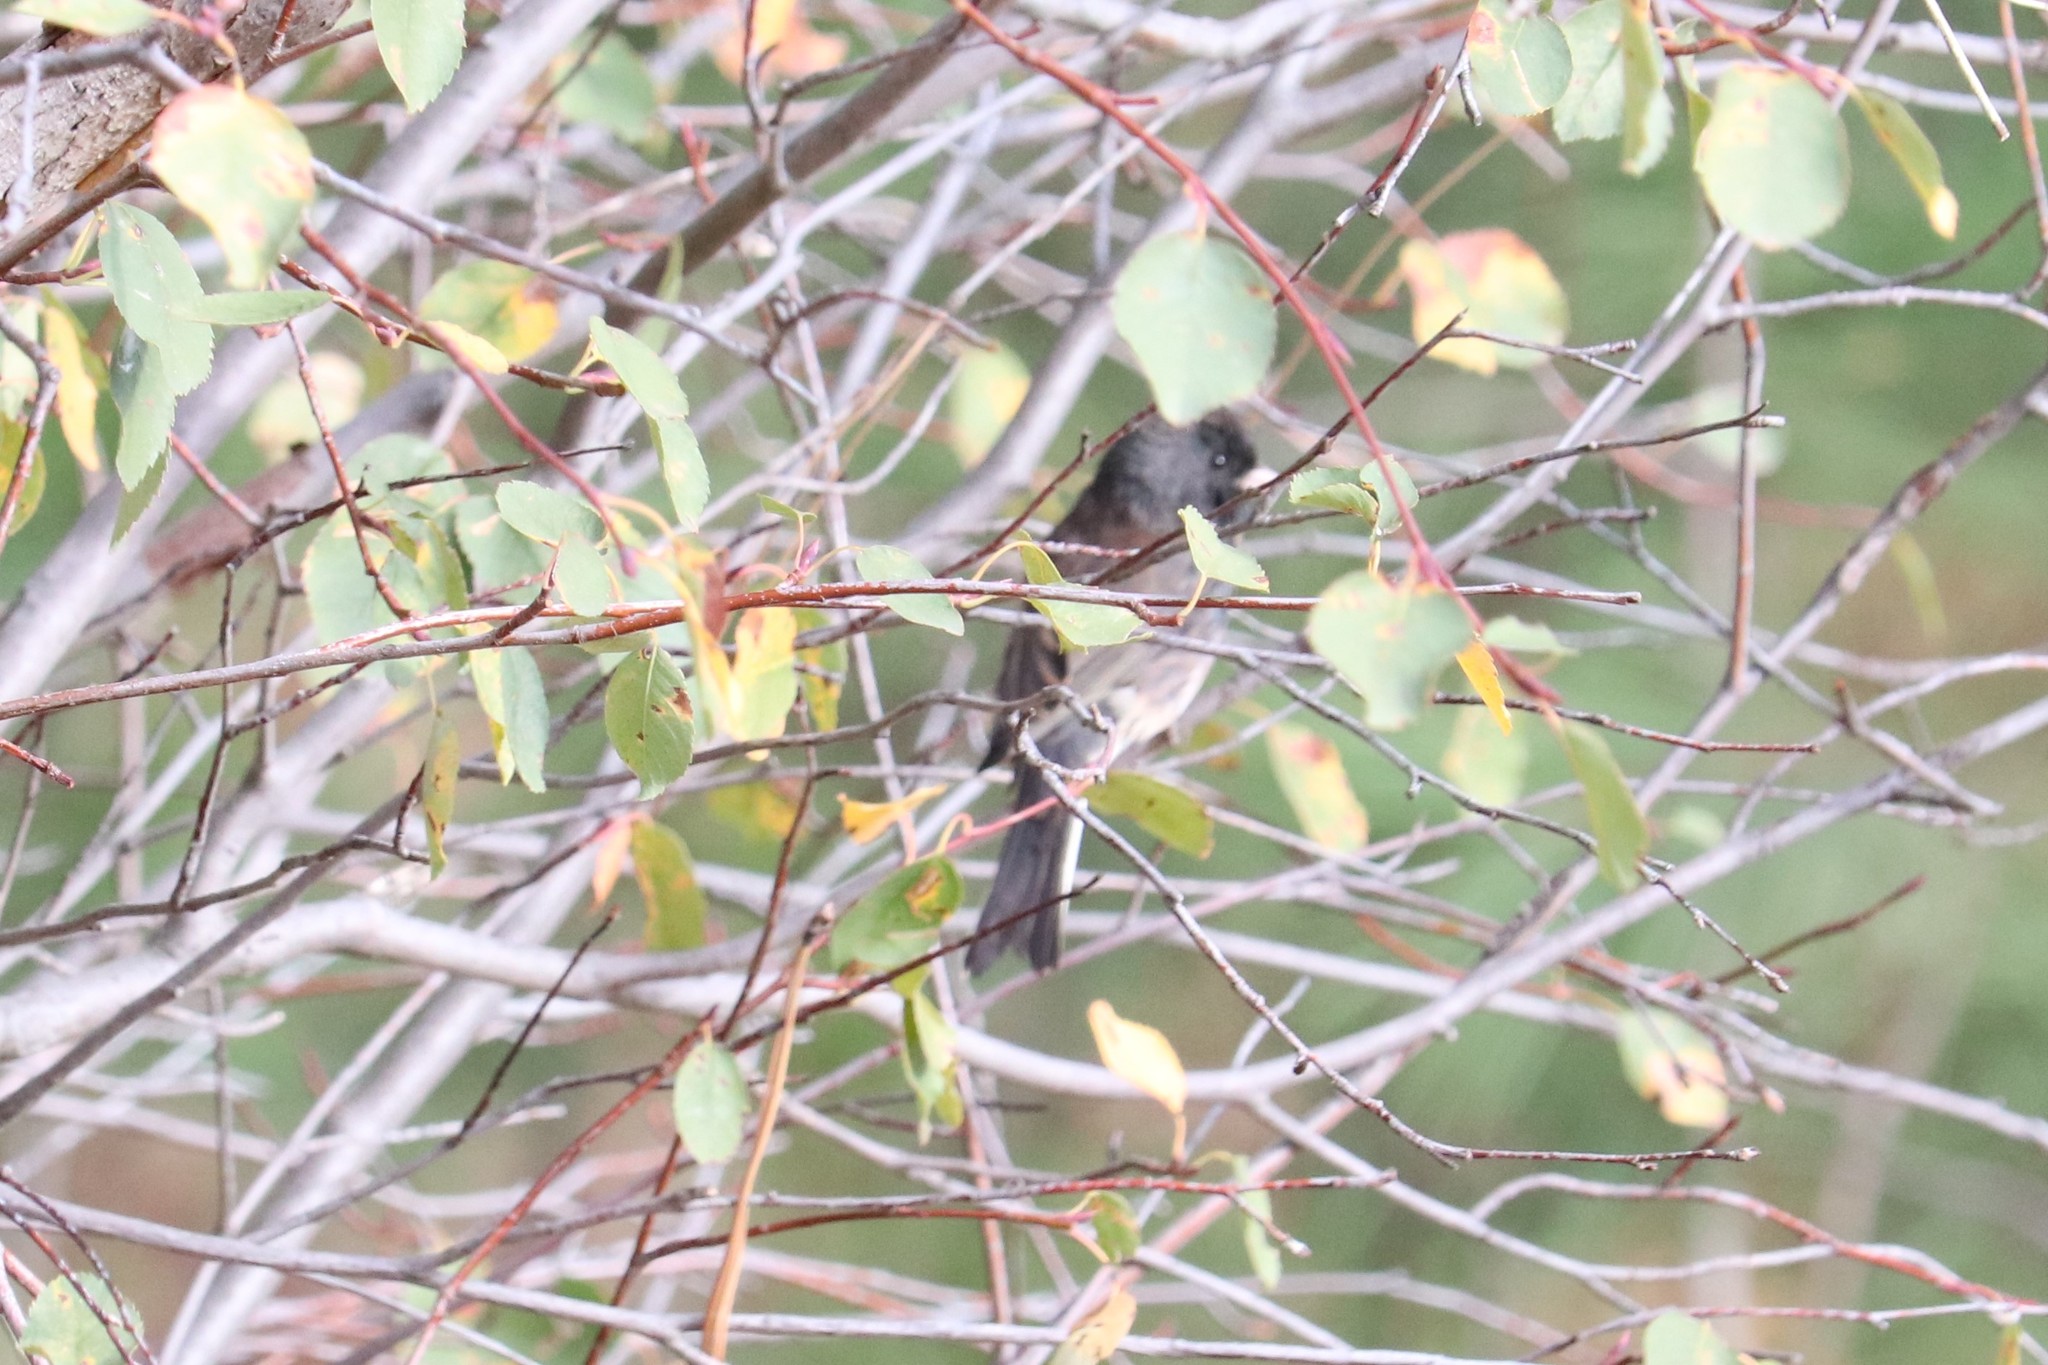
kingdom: Animalia
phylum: Chordata
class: Aves
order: Passeriformes
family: Passerellidae
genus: Junco
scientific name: Junco hyemalis
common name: Dark-eyed junco
